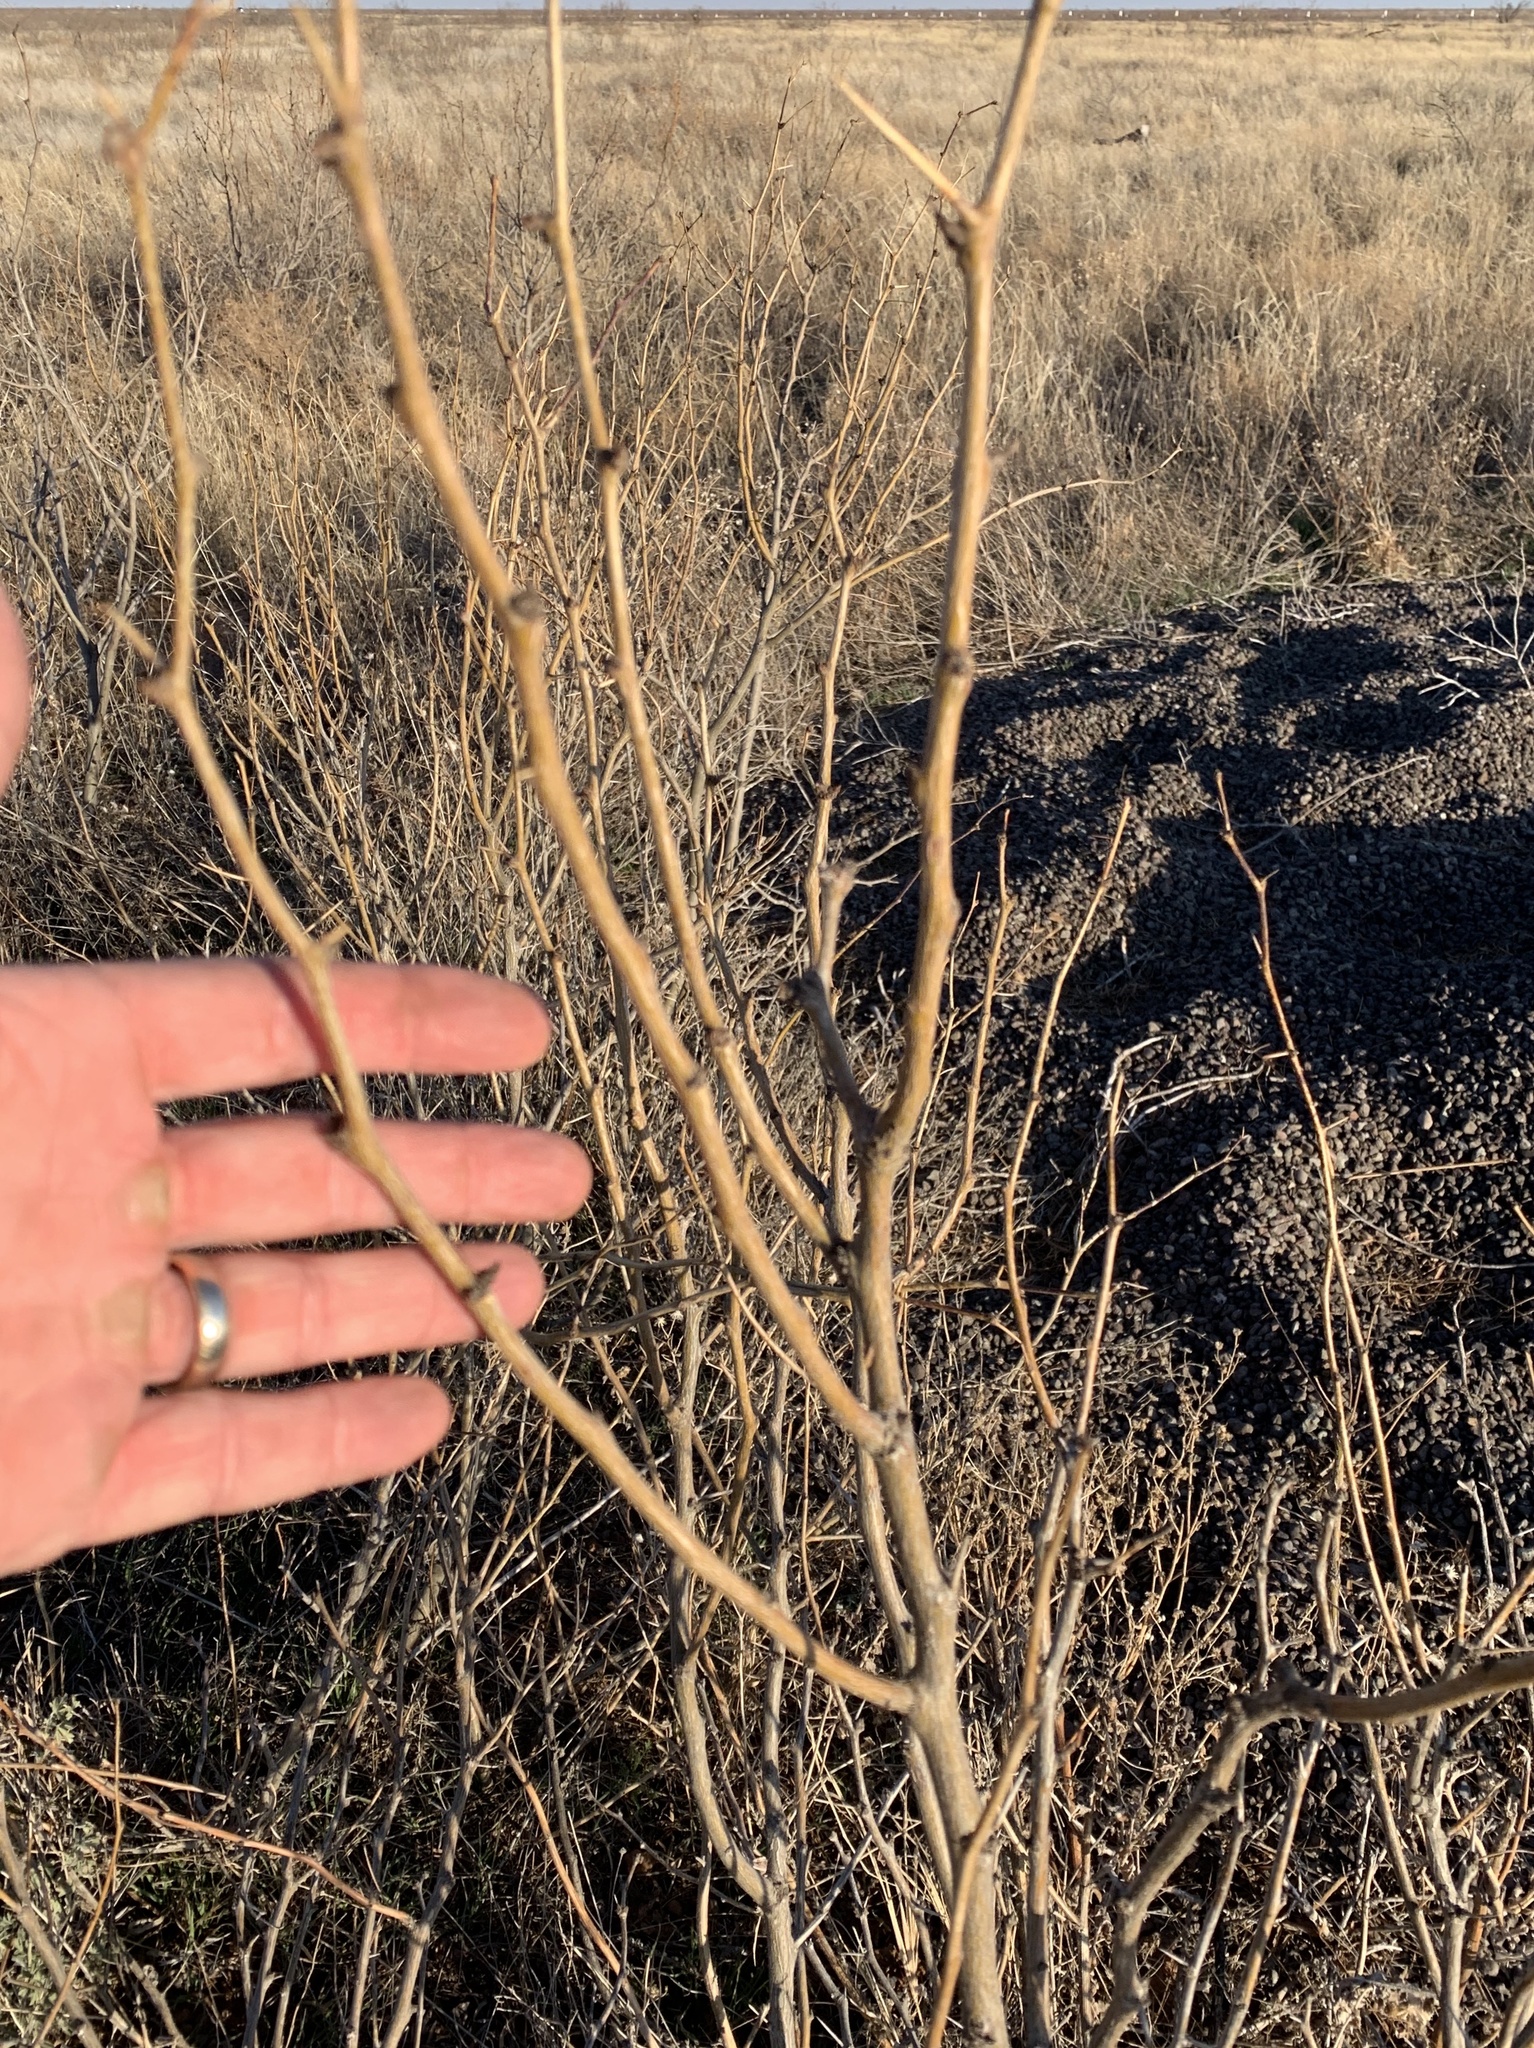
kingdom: Plantae
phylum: Tracheophyta
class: Magnoliopsida
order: Fabales
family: Fabaceae
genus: Prosopis
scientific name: Prosopis glandulosa
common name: Honey mesquite
